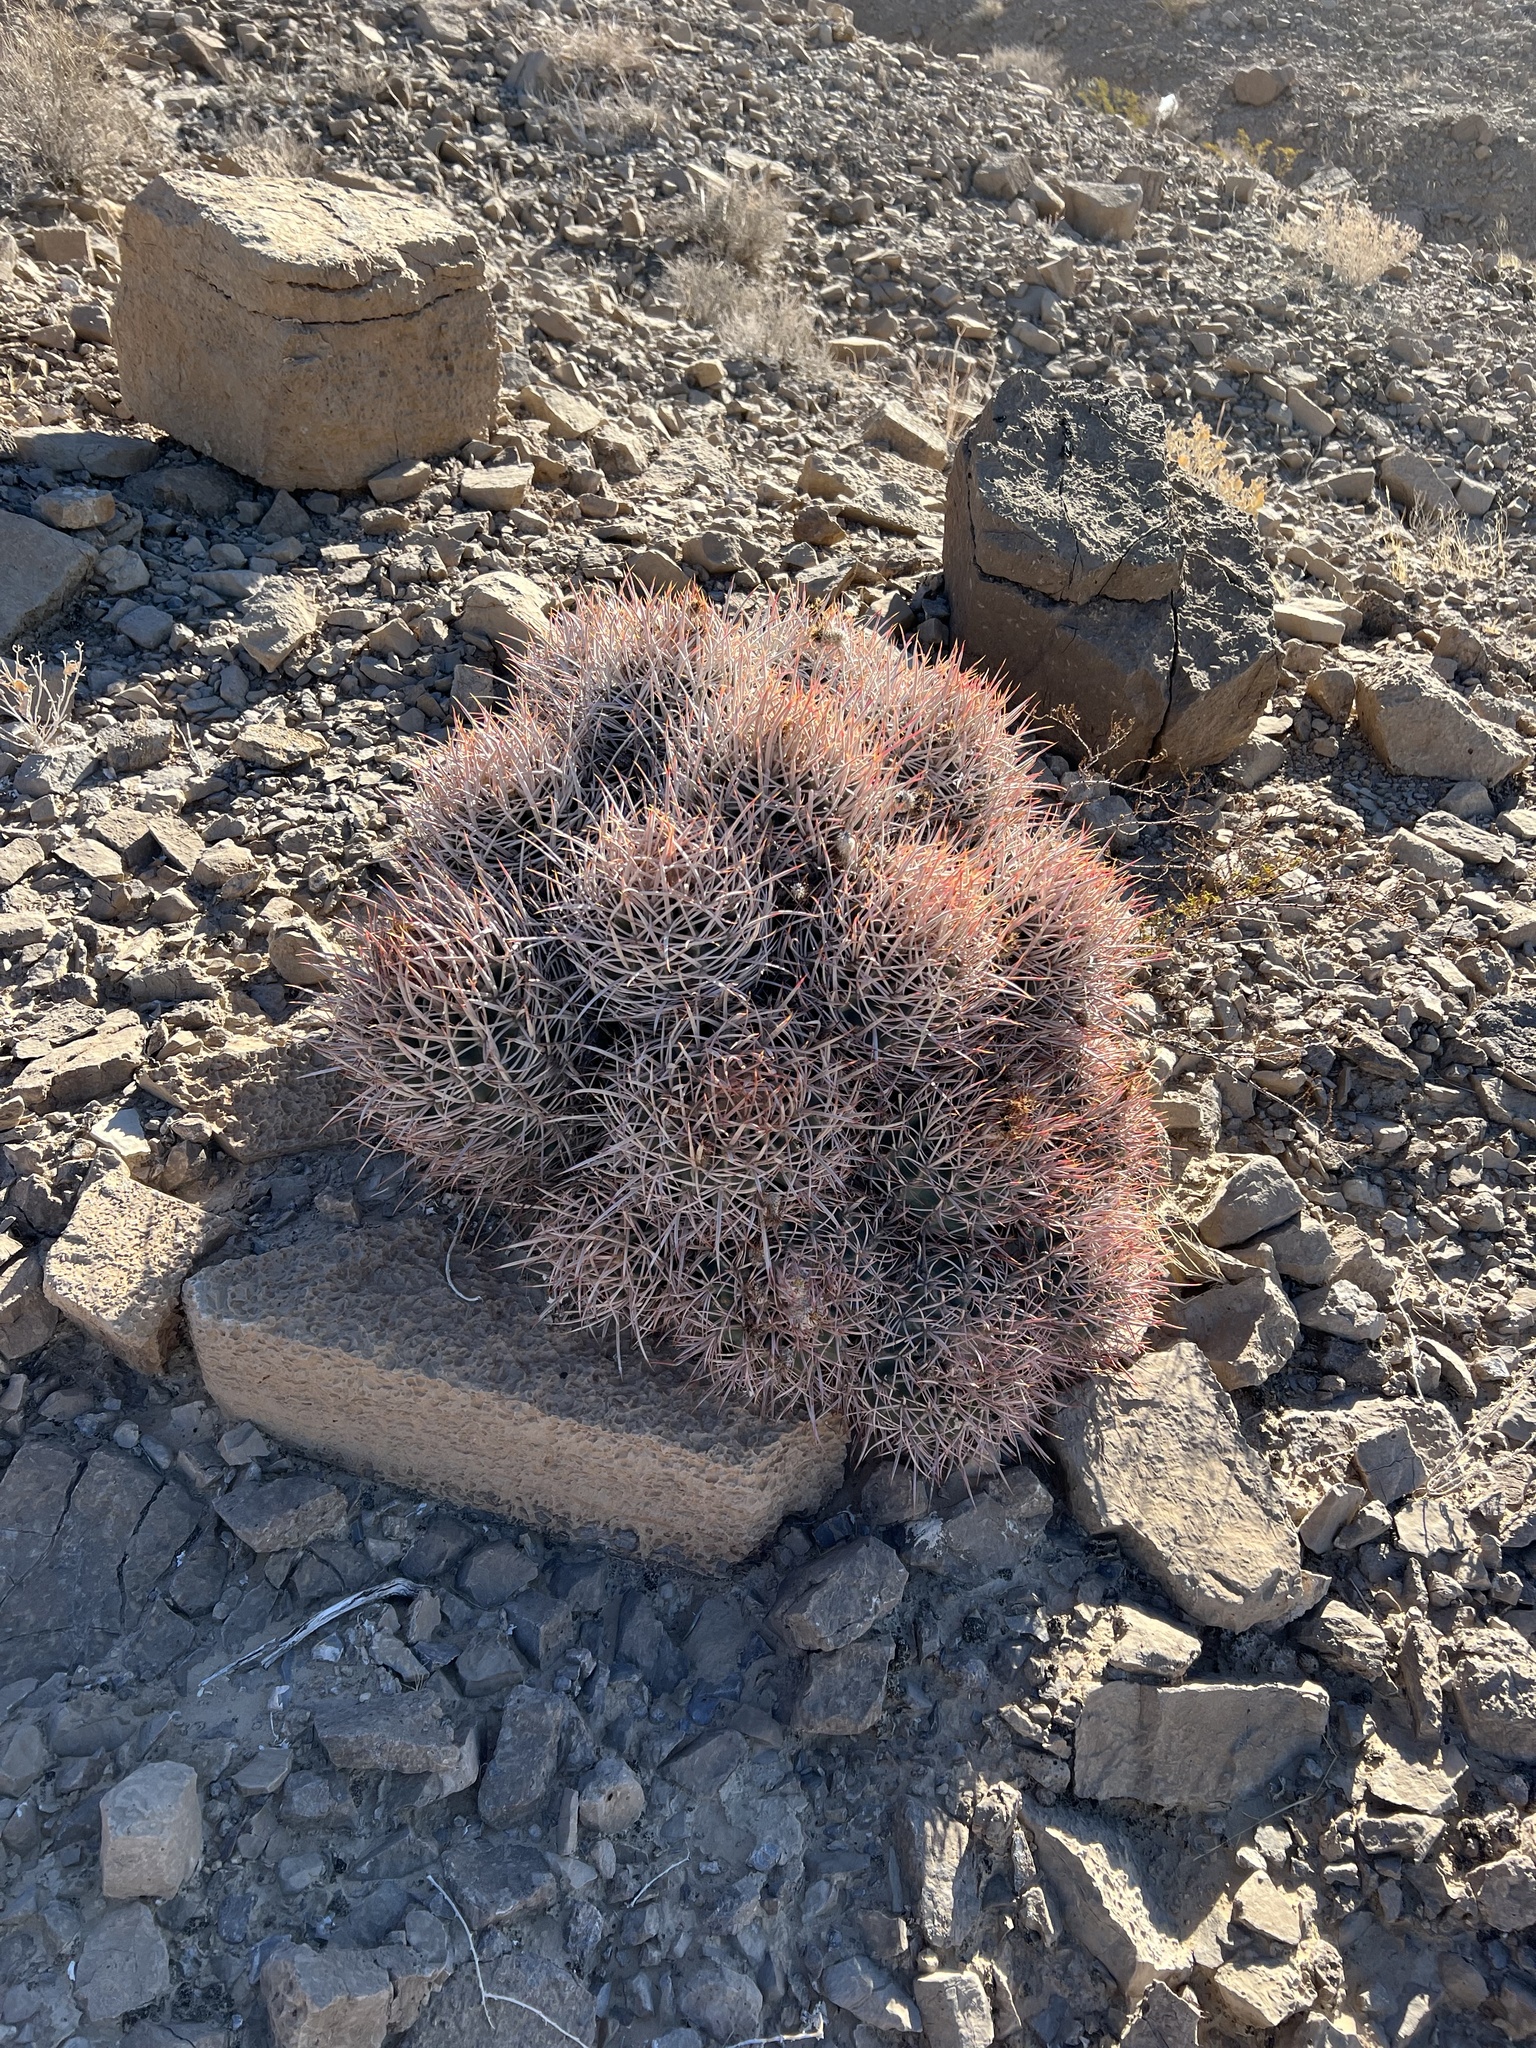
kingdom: Plantae
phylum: Tracheophyta
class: Magnoliopsida
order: Caryophyllales
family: Cactaceae
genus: Echinocactus
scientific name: Echinocactus polycephalus
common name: Cottontop cactus
